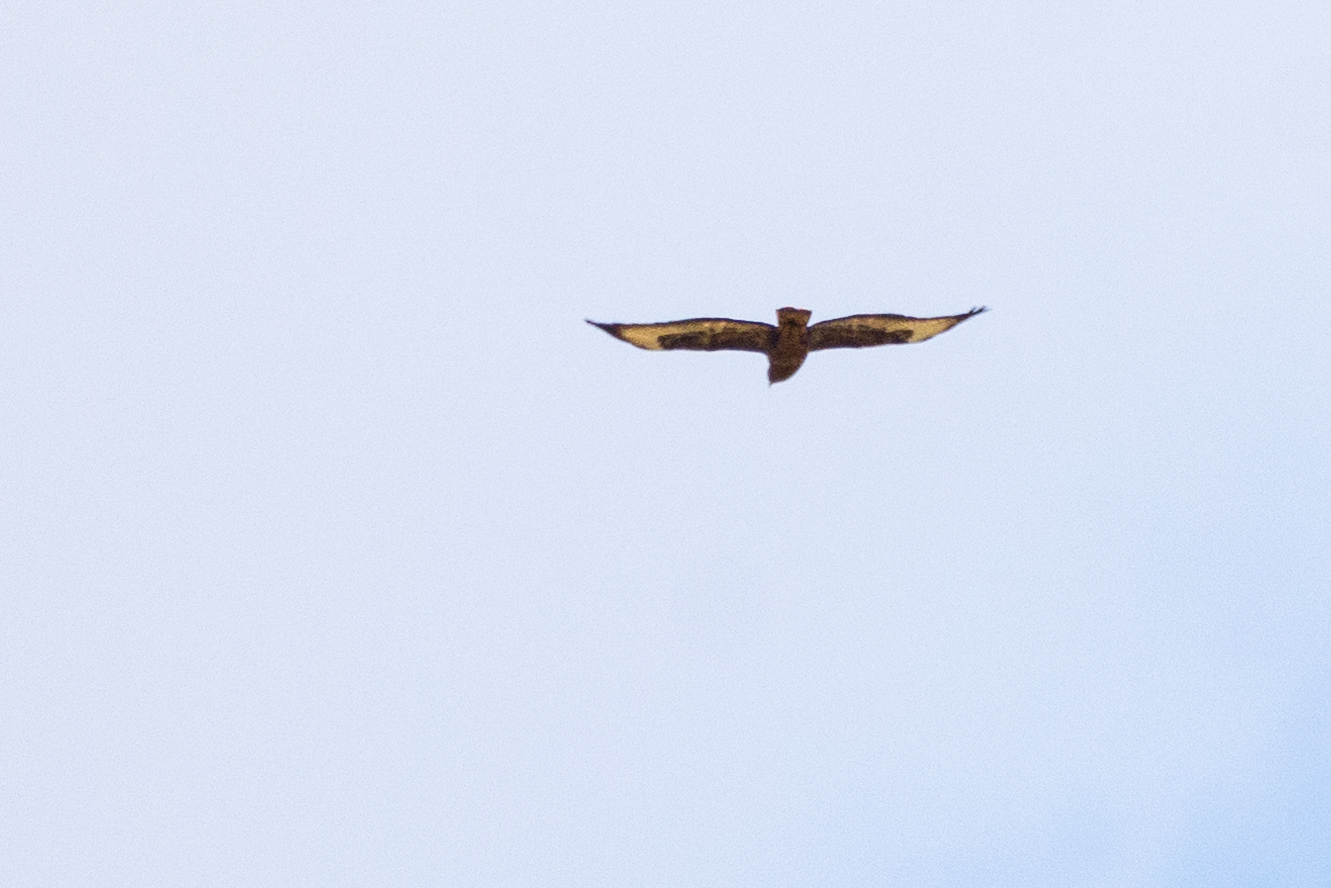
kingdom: Animalia
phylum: Chordata
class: Aves
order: Accipitriformes
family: Accipitridae
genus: Buteo
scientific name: Buteo buteo
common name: Common buzzard
